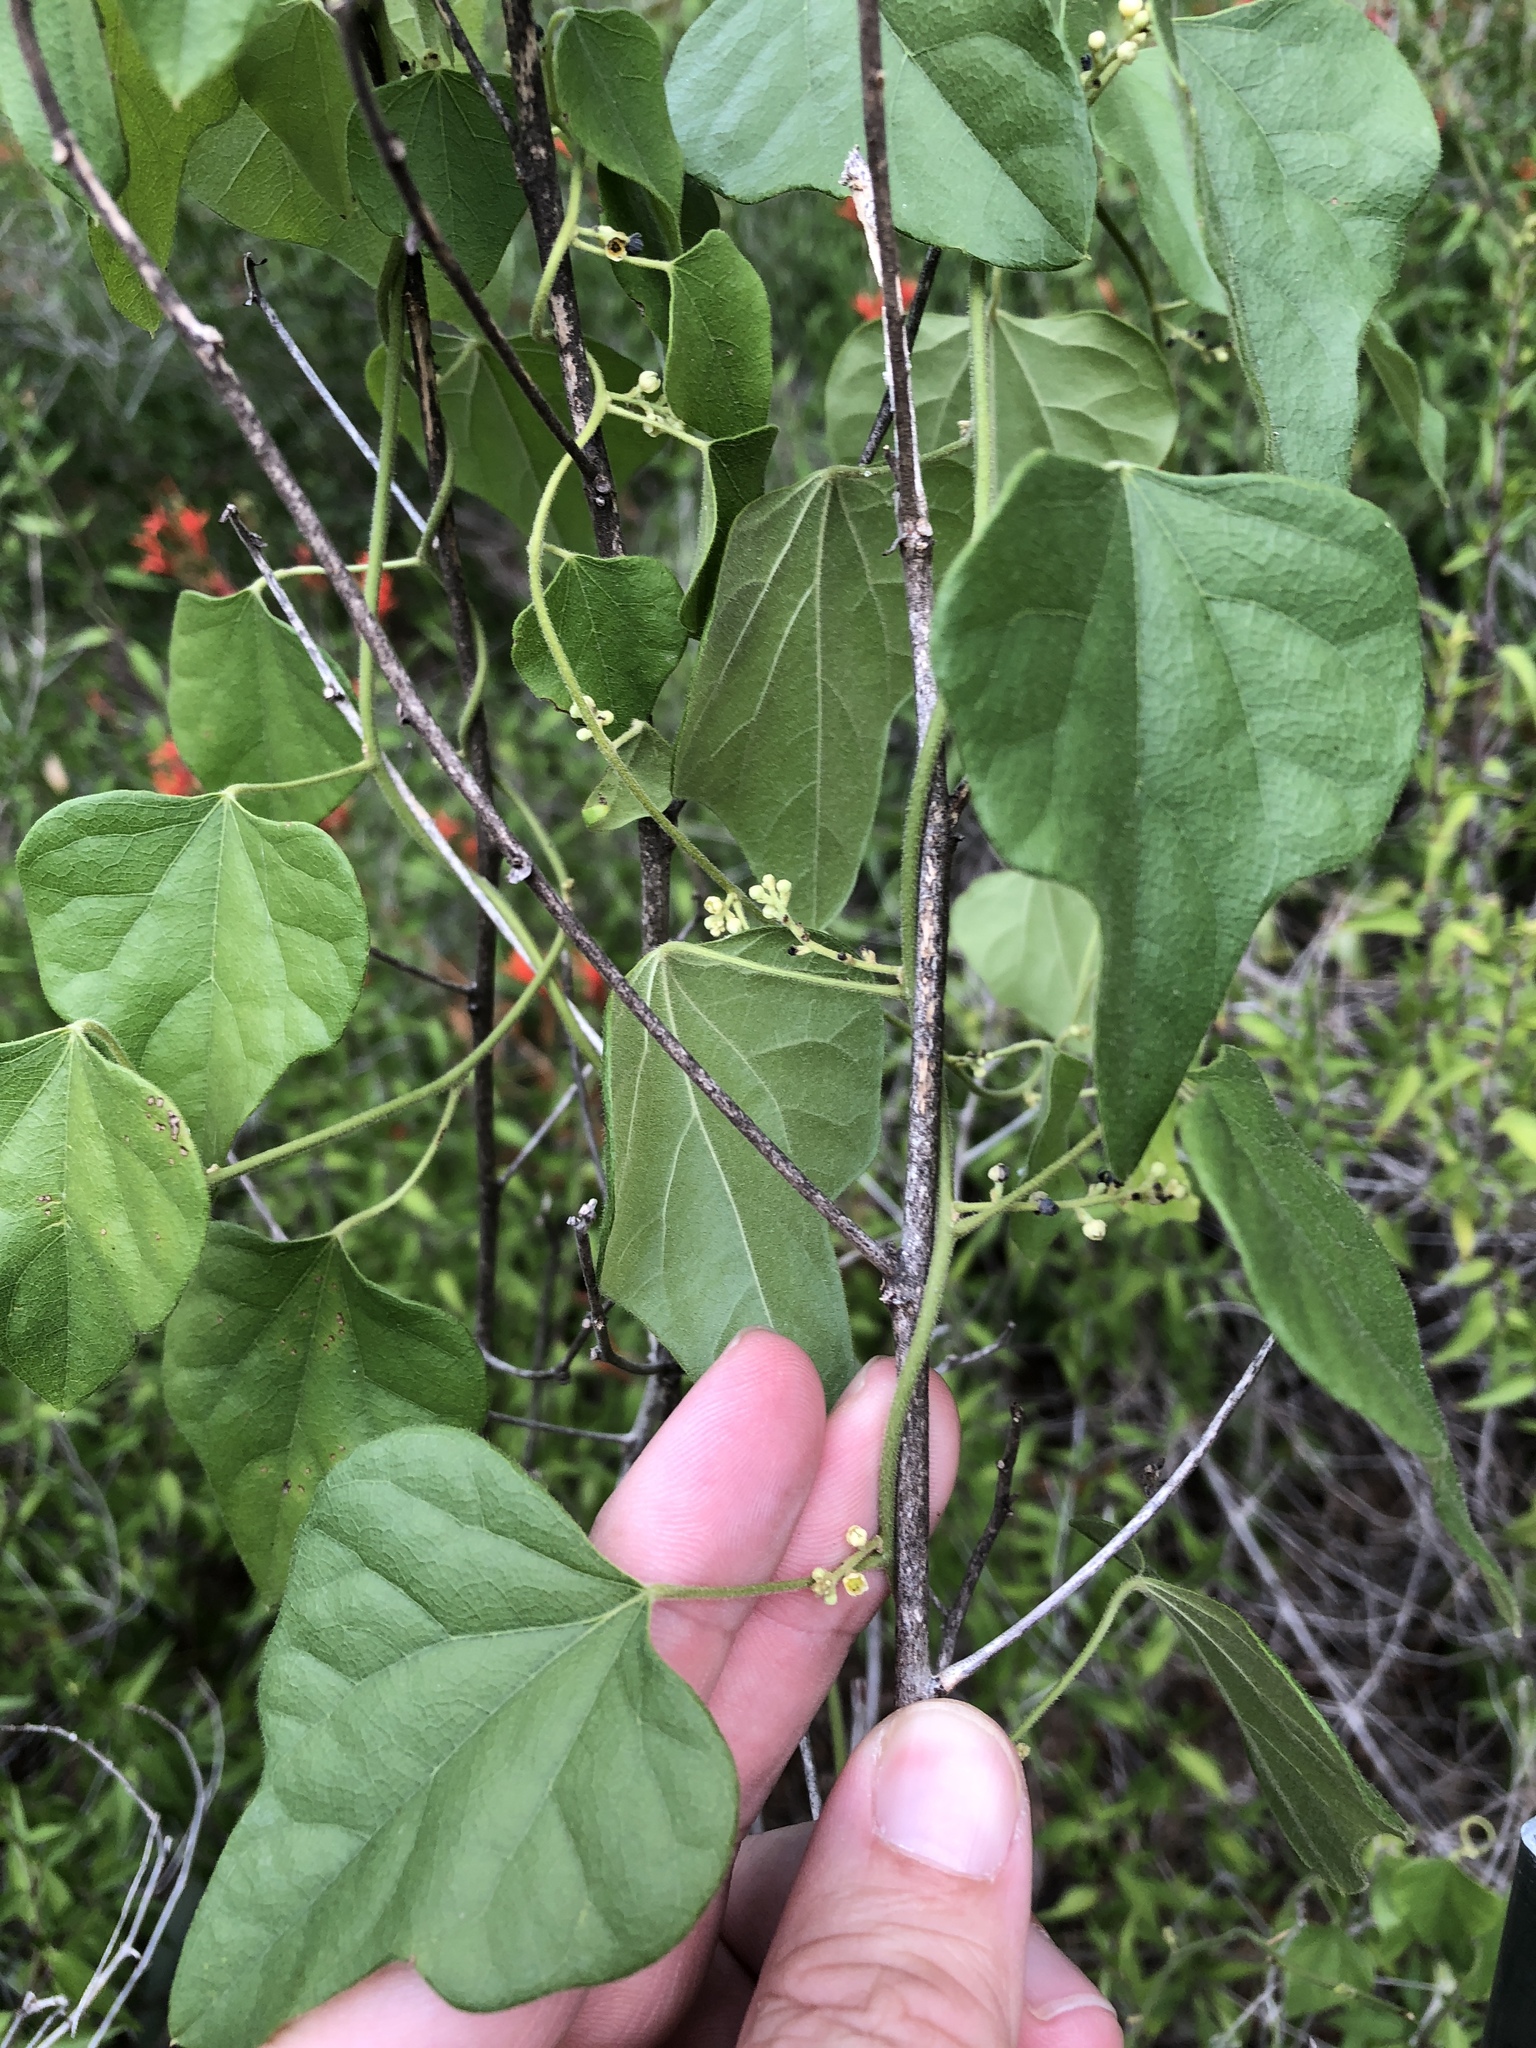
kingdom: Plantae
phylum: Tracheophyta
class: Magnoliopsida
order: Ranunculales
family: Menispermaceae
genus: Cocculus
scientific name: Cocculus carolinus
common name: Carolina moonseed
